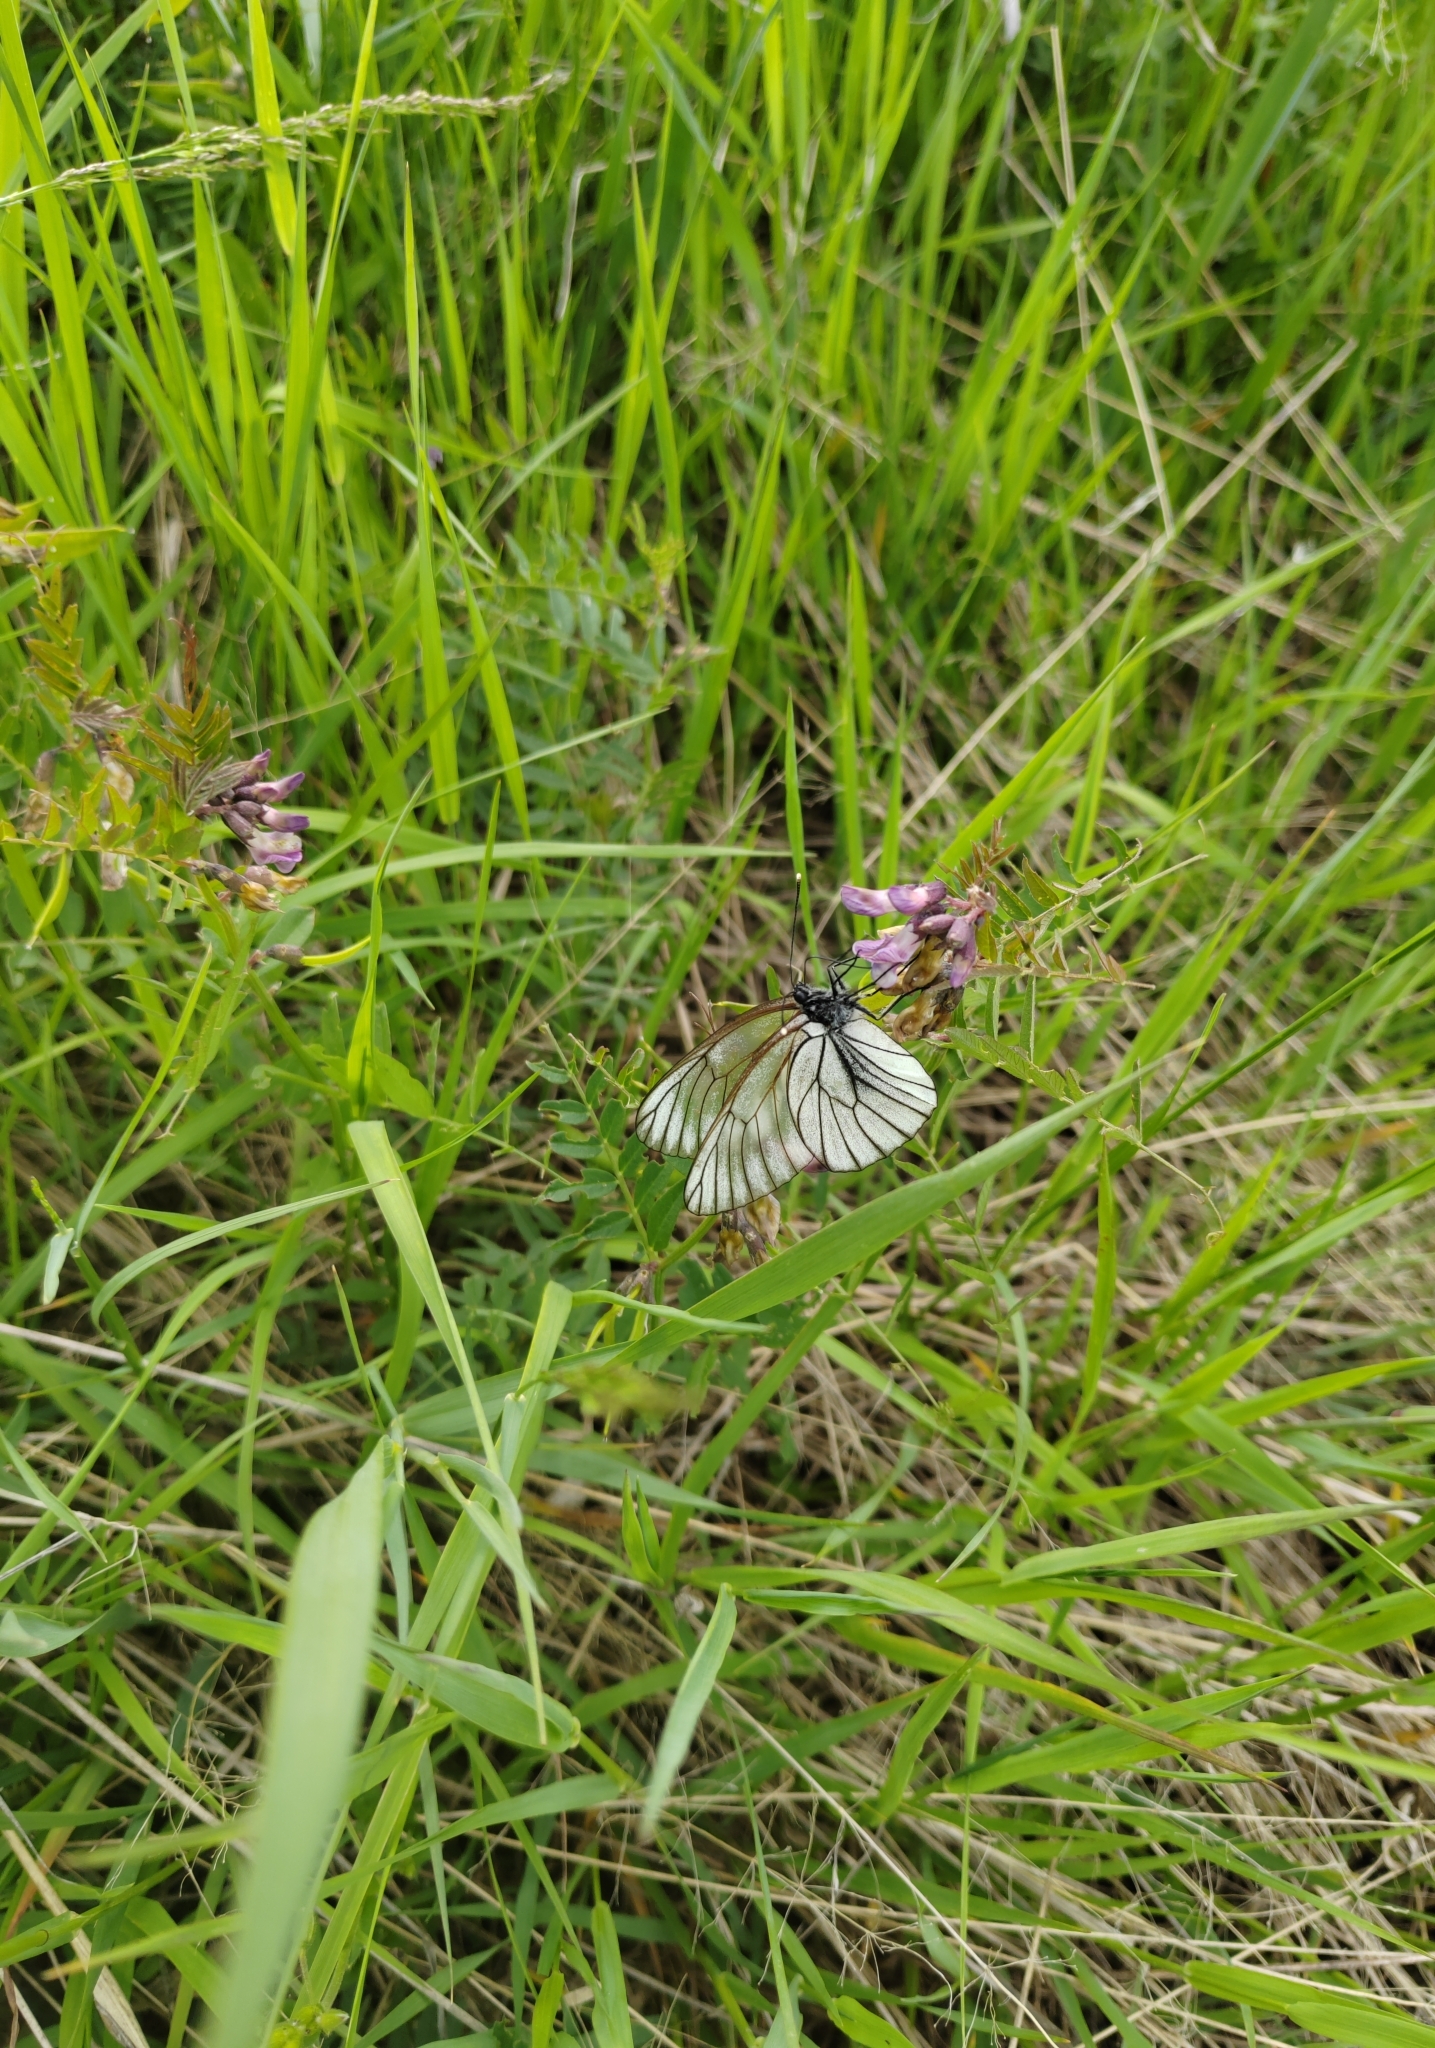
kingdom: Animalia
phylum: Arthropoda
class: Insecta
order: Lepidoptera
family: Pieridae
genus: Aporia
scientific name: Aporia crataegi
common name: Black-veined white
